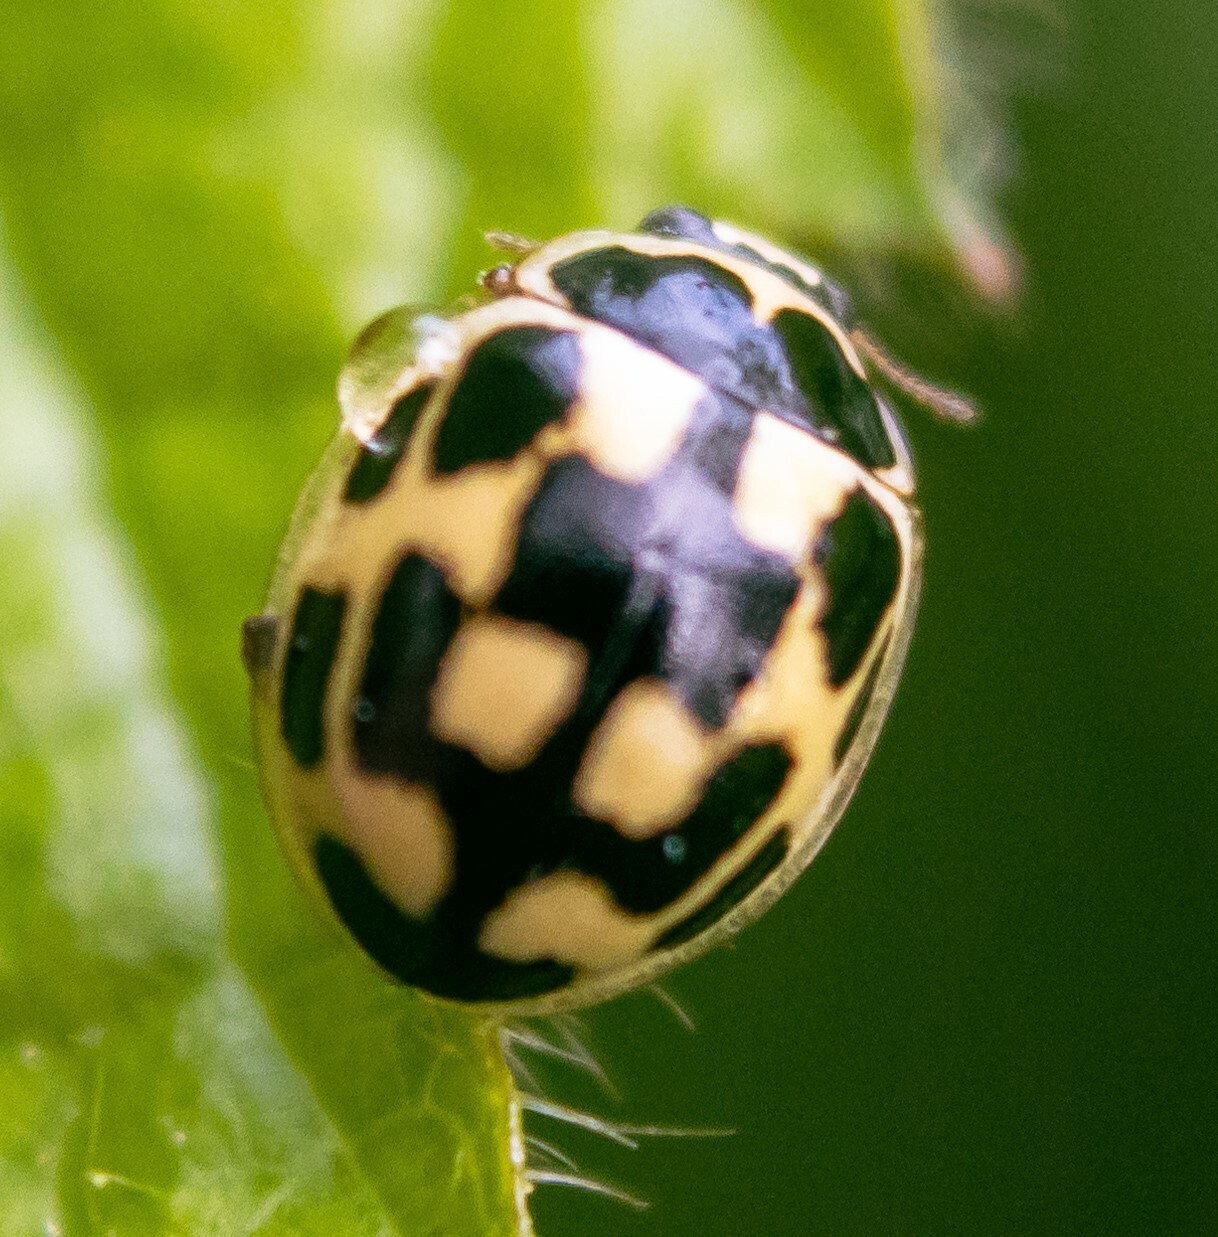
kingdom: Animalia
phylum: Arthropoda
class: Insecta
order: Coleoptera
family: Coccinellidae
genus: Propylaea
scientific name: Propylaea quatuordecimpunctata
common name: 14-spotted ladybird beetle
